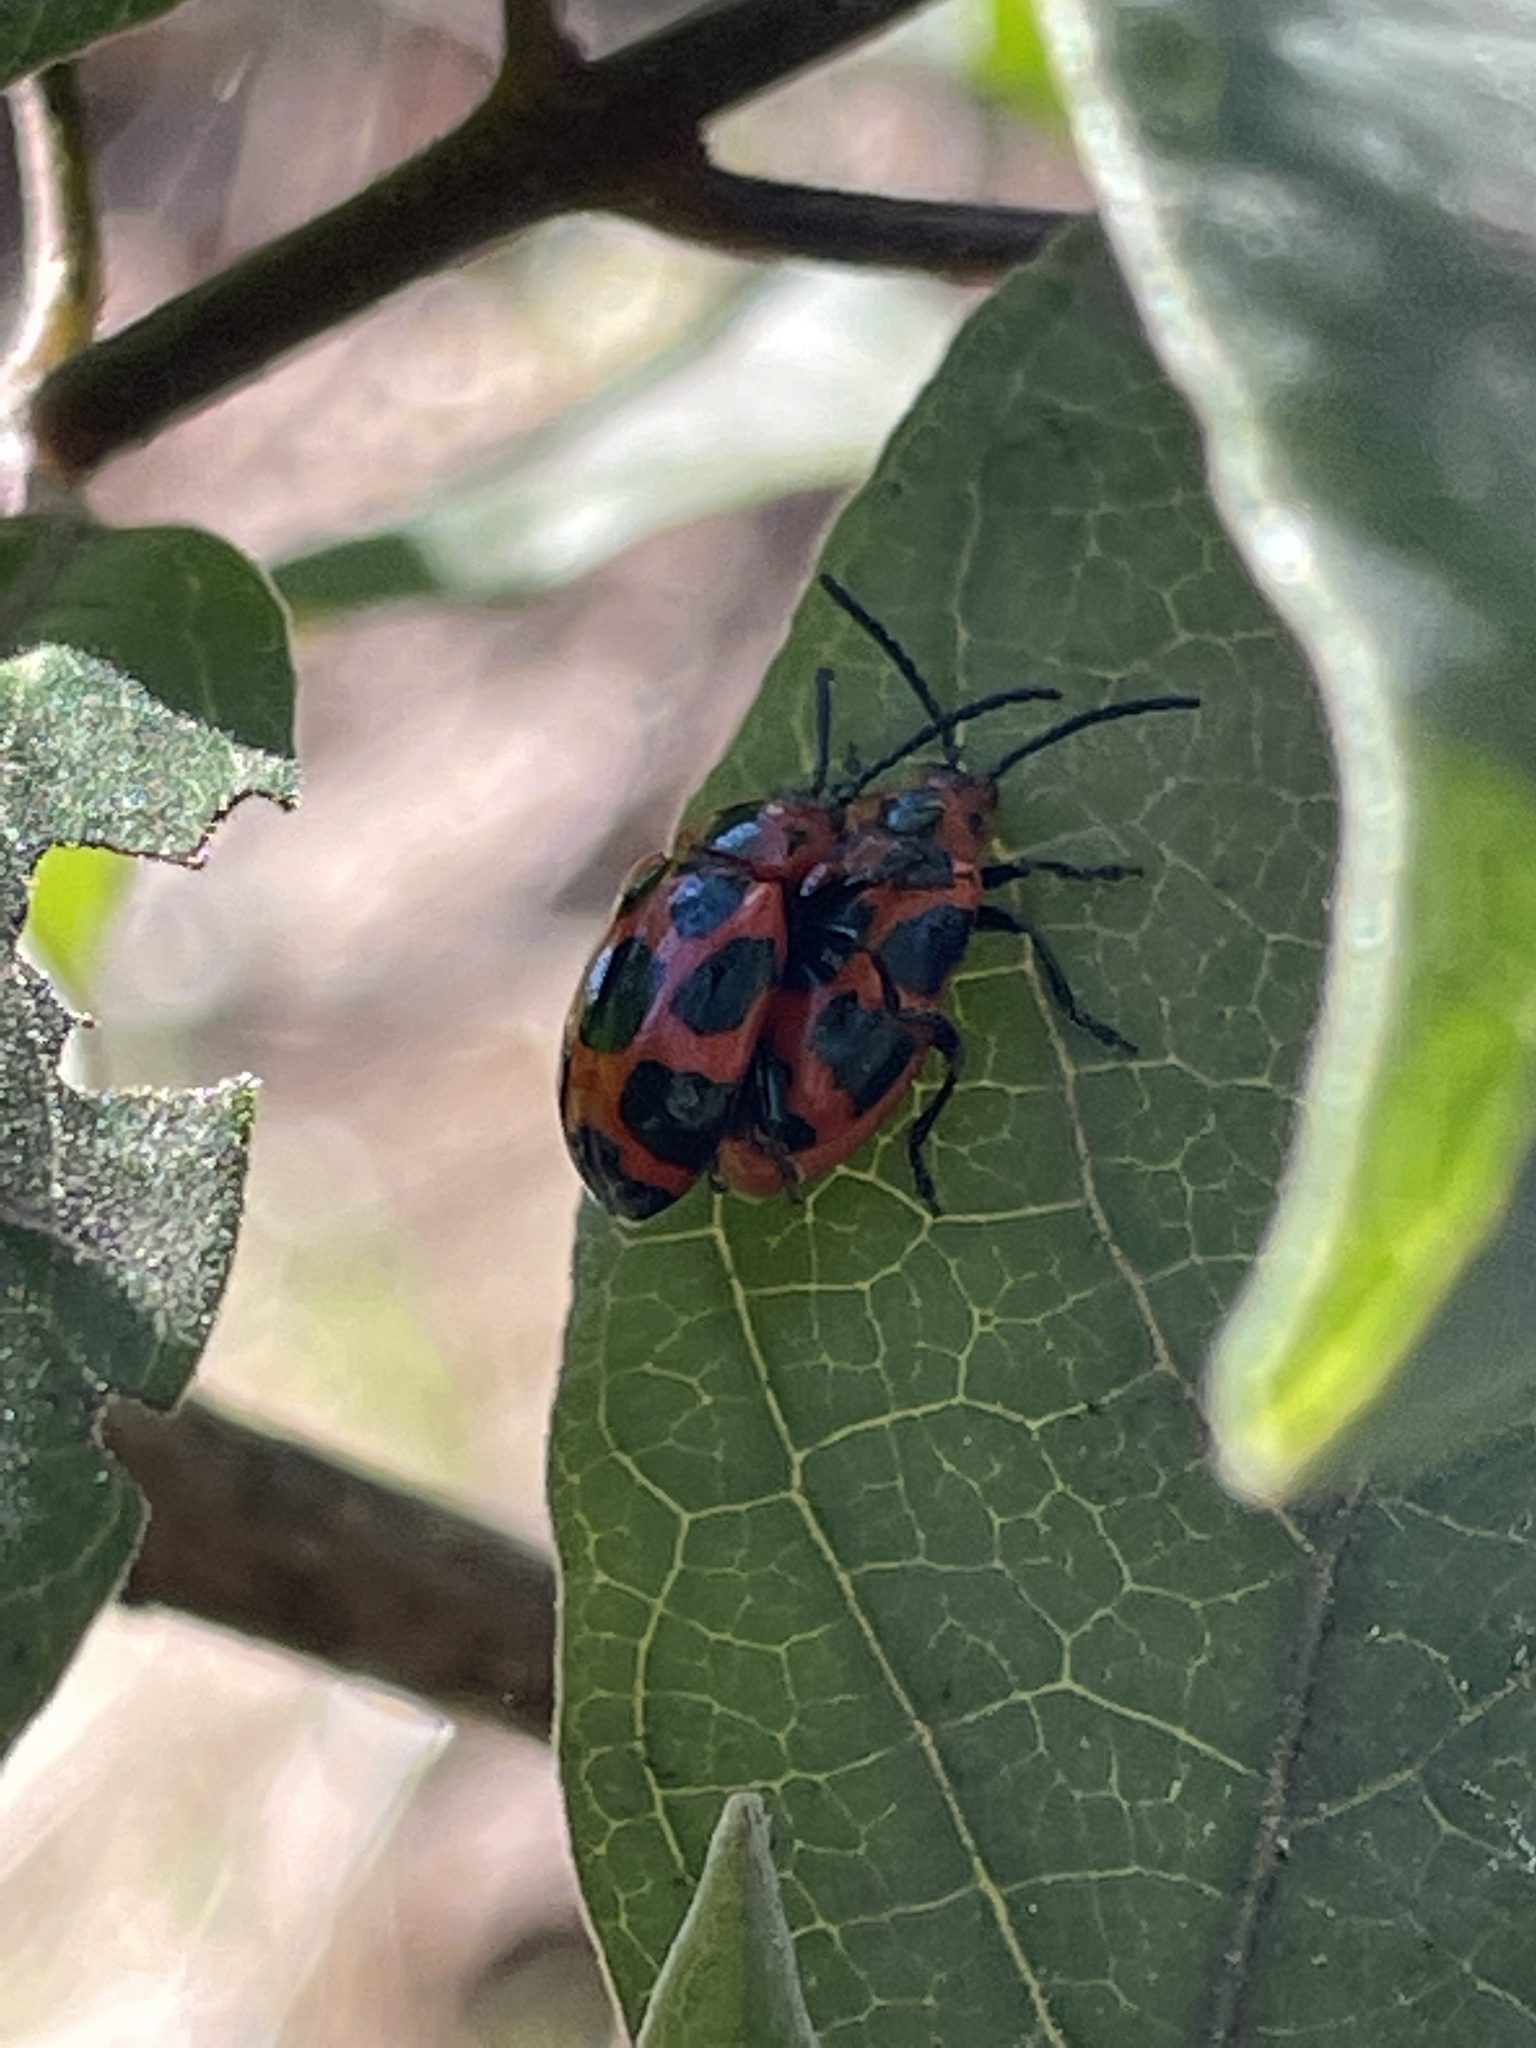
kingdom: Animalia
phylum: Arthropoda
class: Insecta
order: Coleoptera
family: Chrysomelidae
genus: Phyllocharis
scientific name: Phyllocharis
